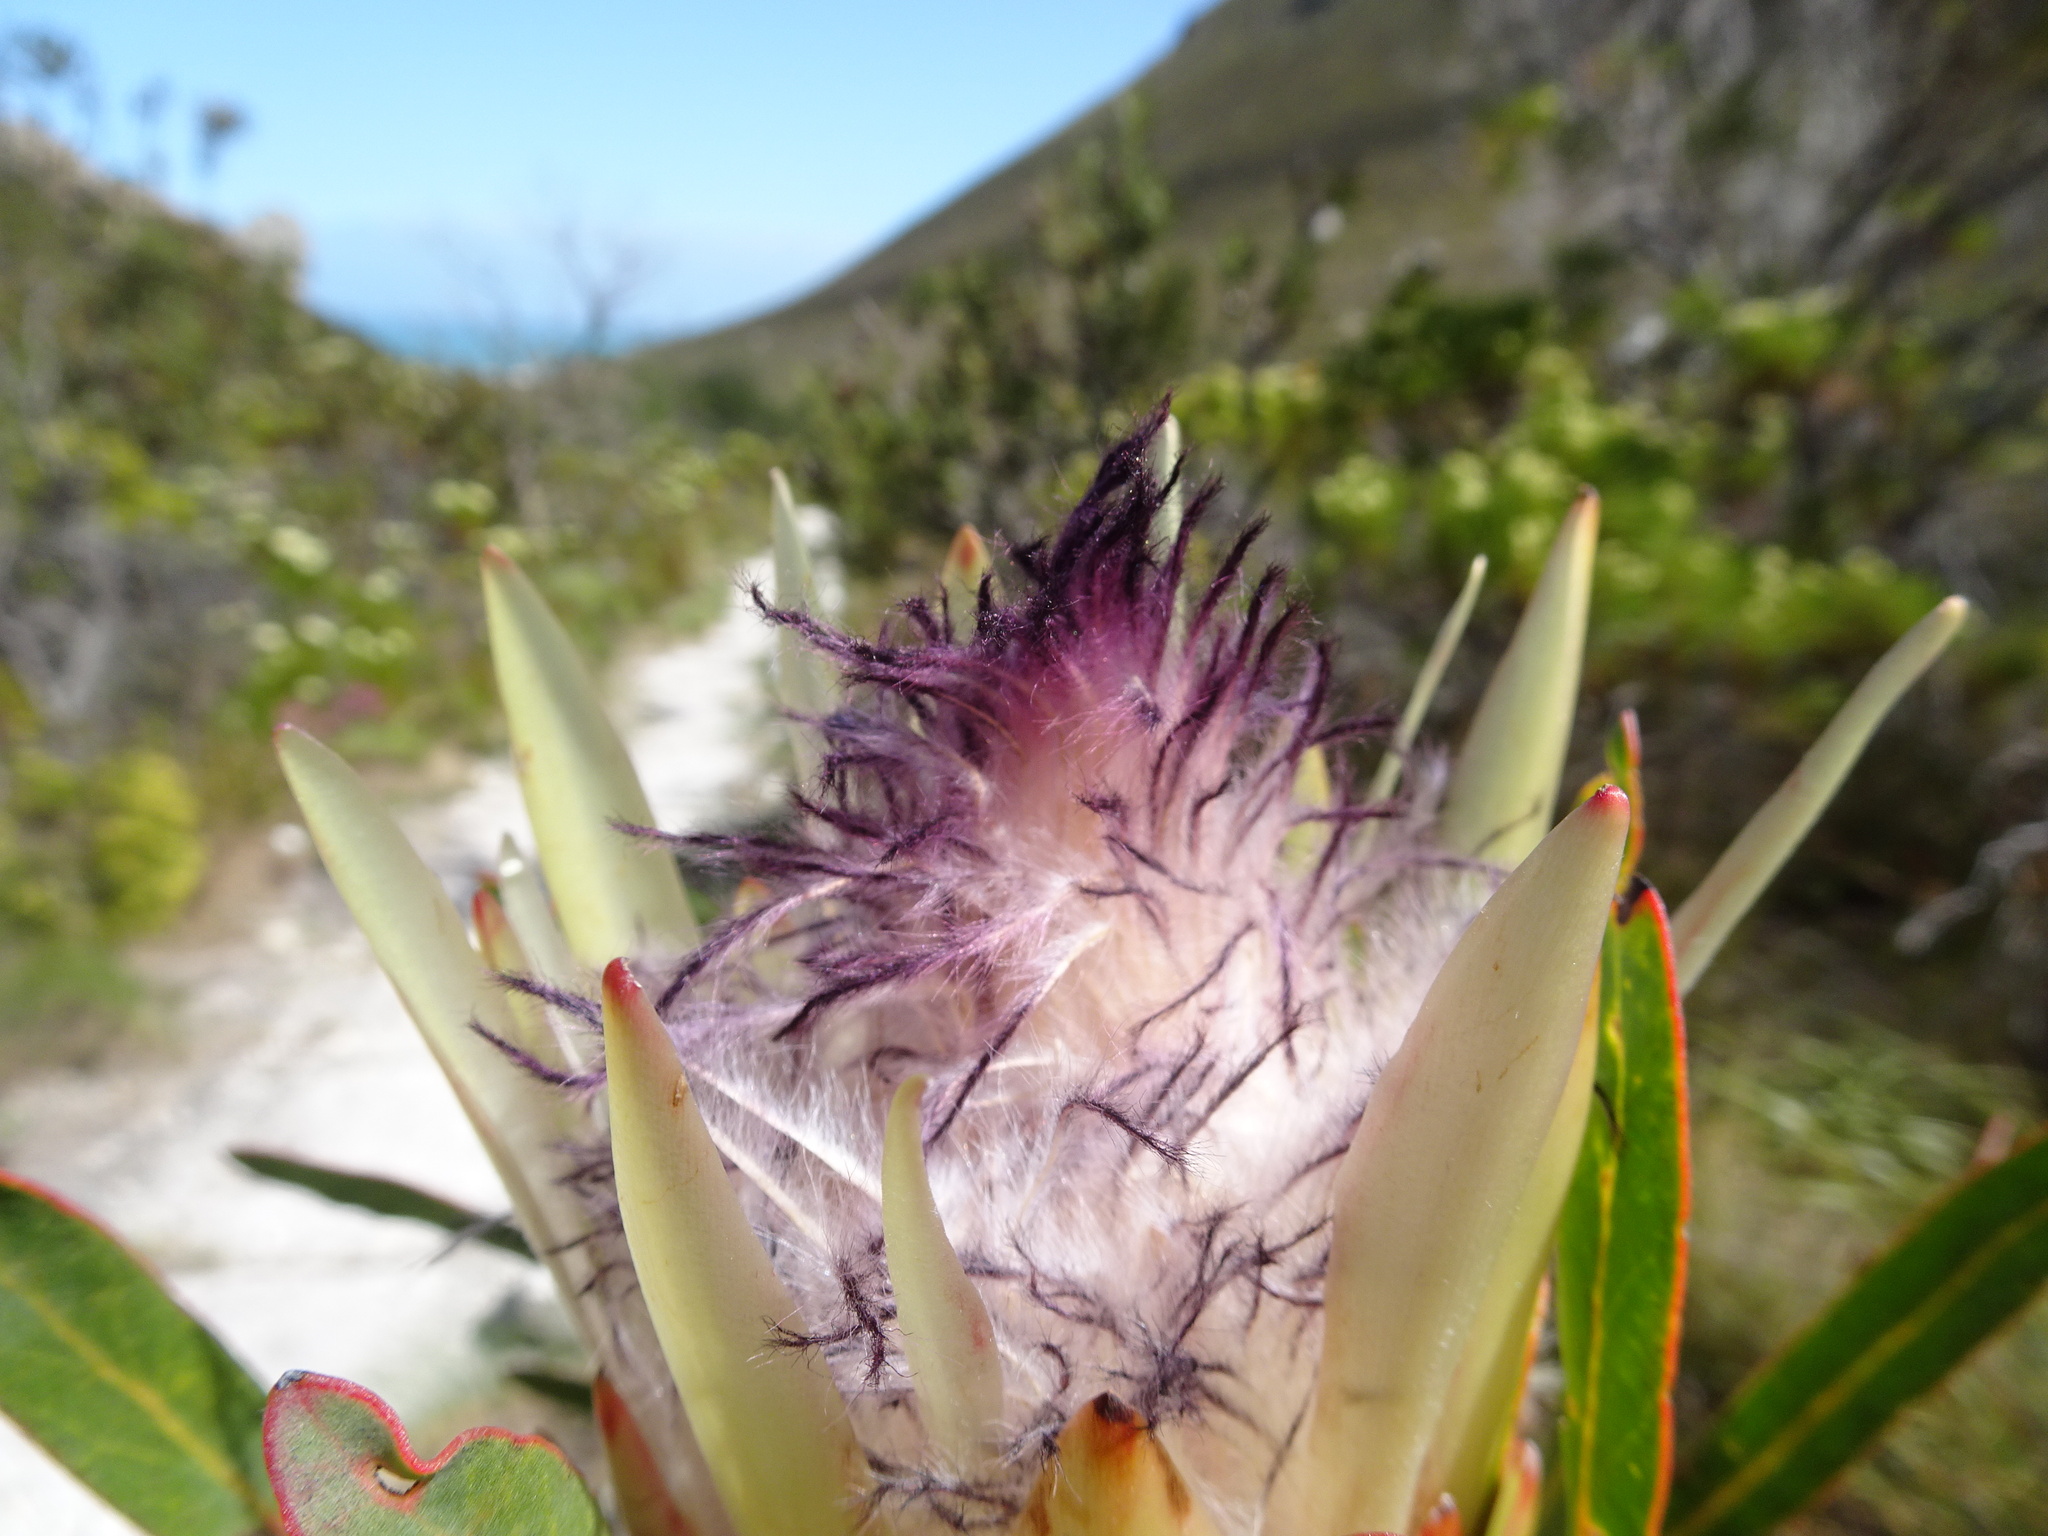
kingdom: Plantae
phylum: Tracheophyta
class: Magnoliopsida
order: Proteales
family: Proteaceae
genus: Protea
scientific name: Protea longifolia
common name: Long-leaf sugarbush
